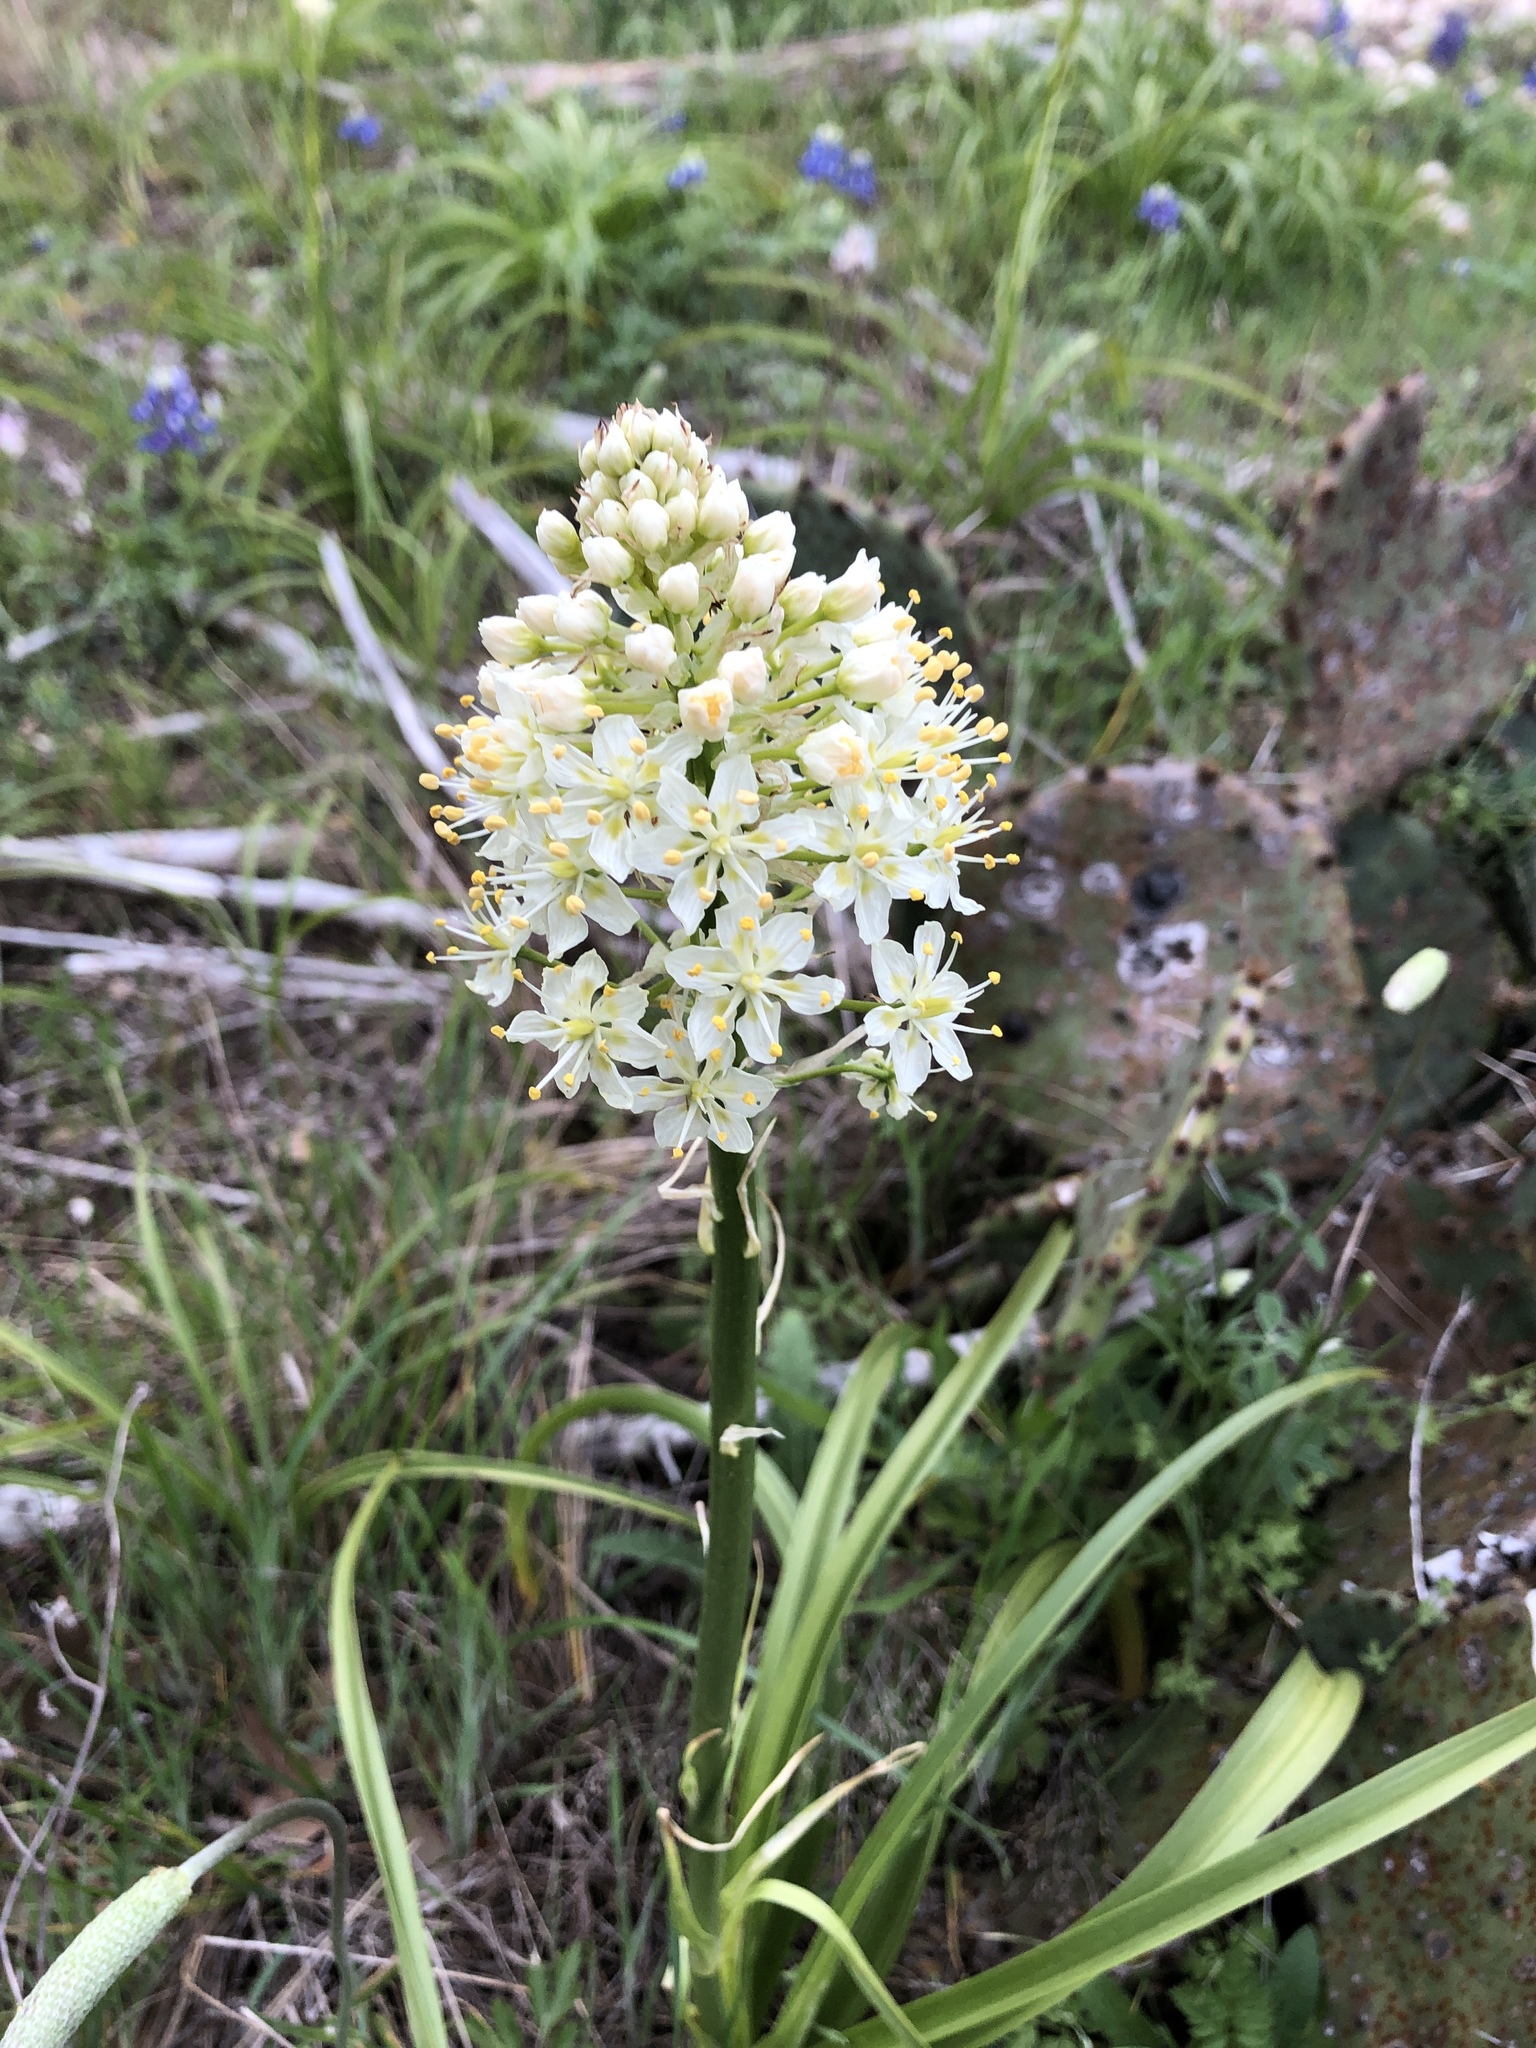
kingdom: Plantae
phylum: Tracheophyta
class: Liliopsida
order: Liliales
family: Melanthiaceae
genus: Toxicoscordion
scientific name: Toxicoscordion nuttallii
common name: Poison sego
